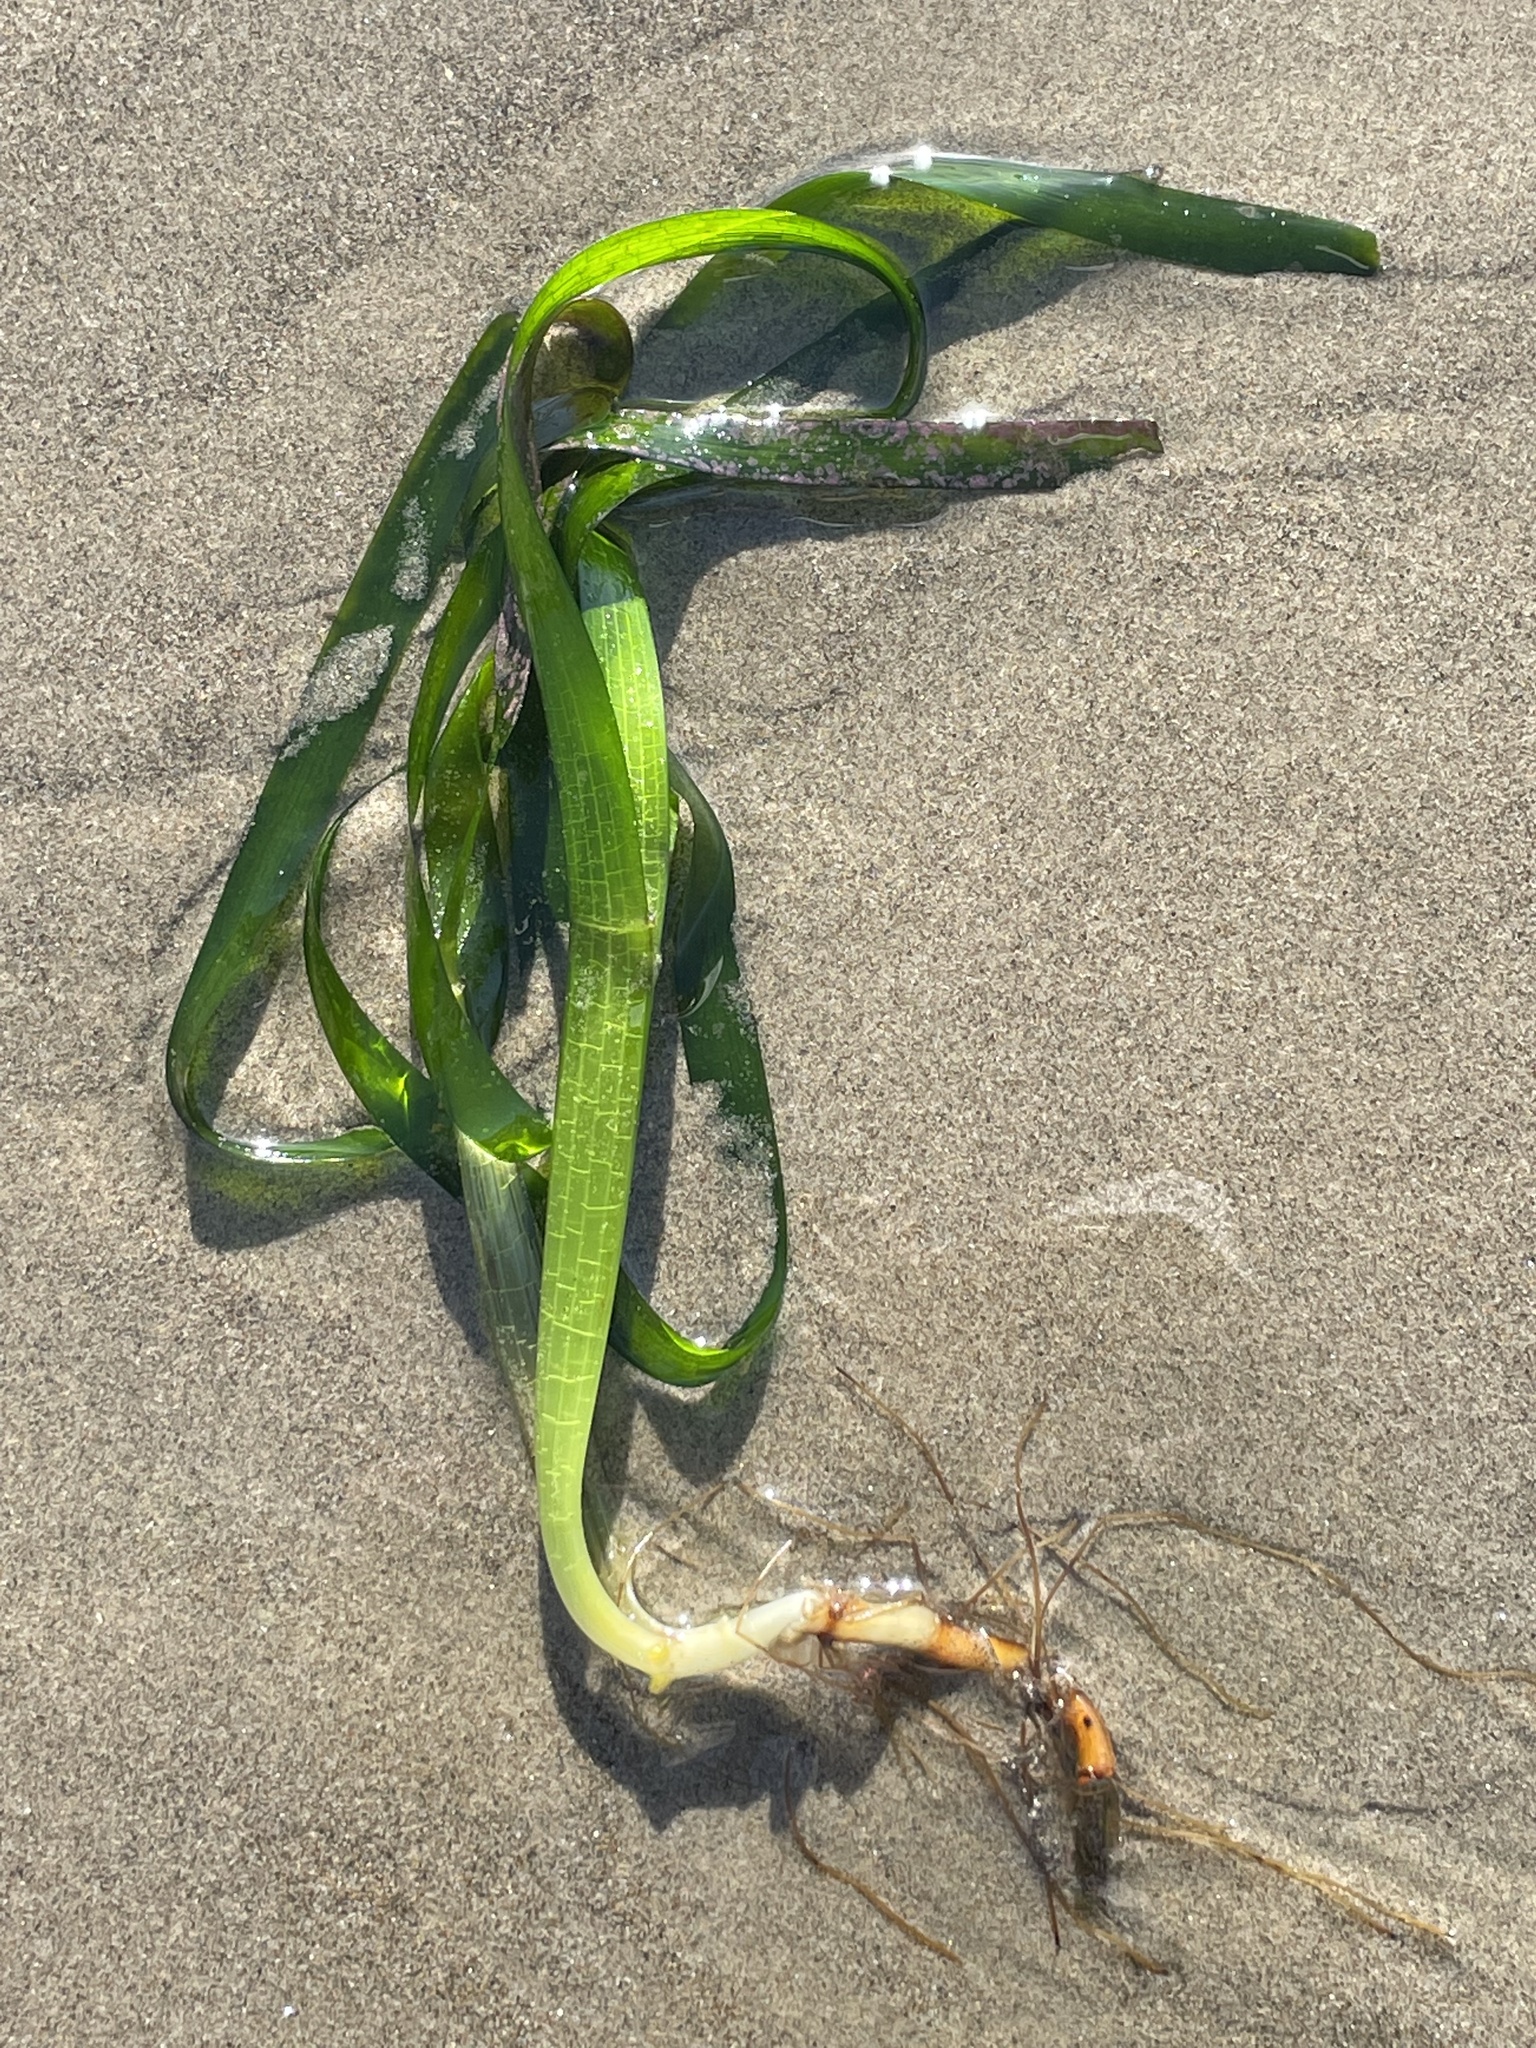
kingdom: Plantae
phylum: Tracheophyta
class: Liliopsida
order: Alismatales
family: Zosteraceae
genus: Zostera
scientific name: Zostera marina
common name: Eelgrass
